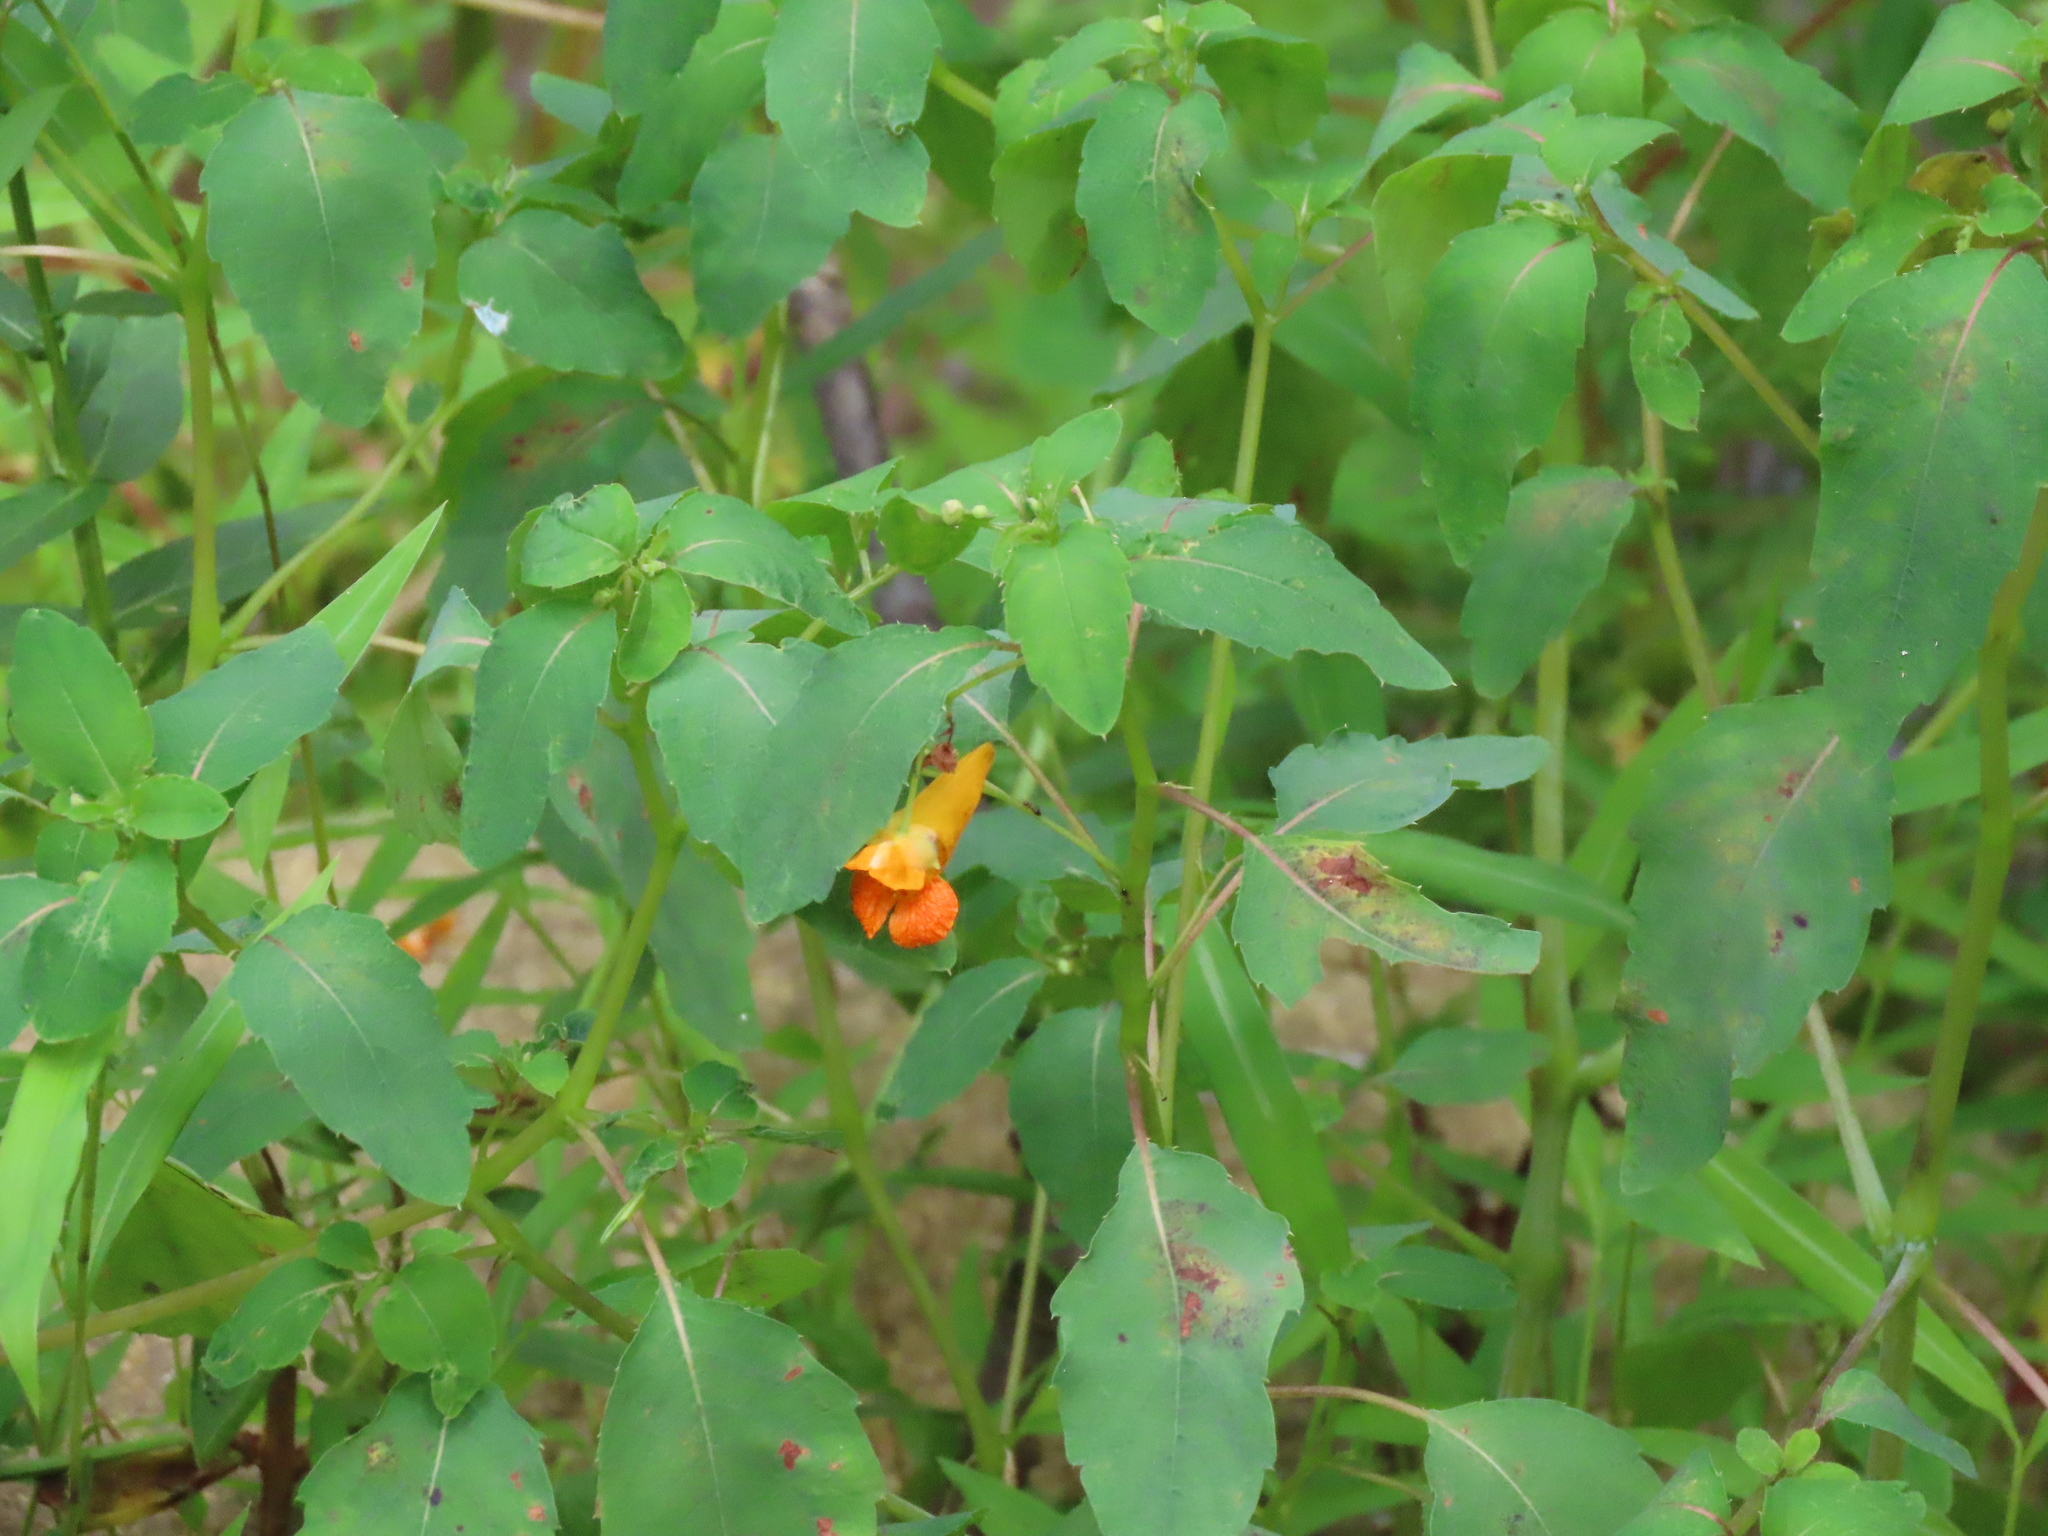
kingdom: Plantae
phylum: Tracheophyta
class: Magnoliopsida
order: Ericales
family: Balsaminaceae
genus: Impatiens
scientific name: Impatiens capensis
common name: Orange balsam
